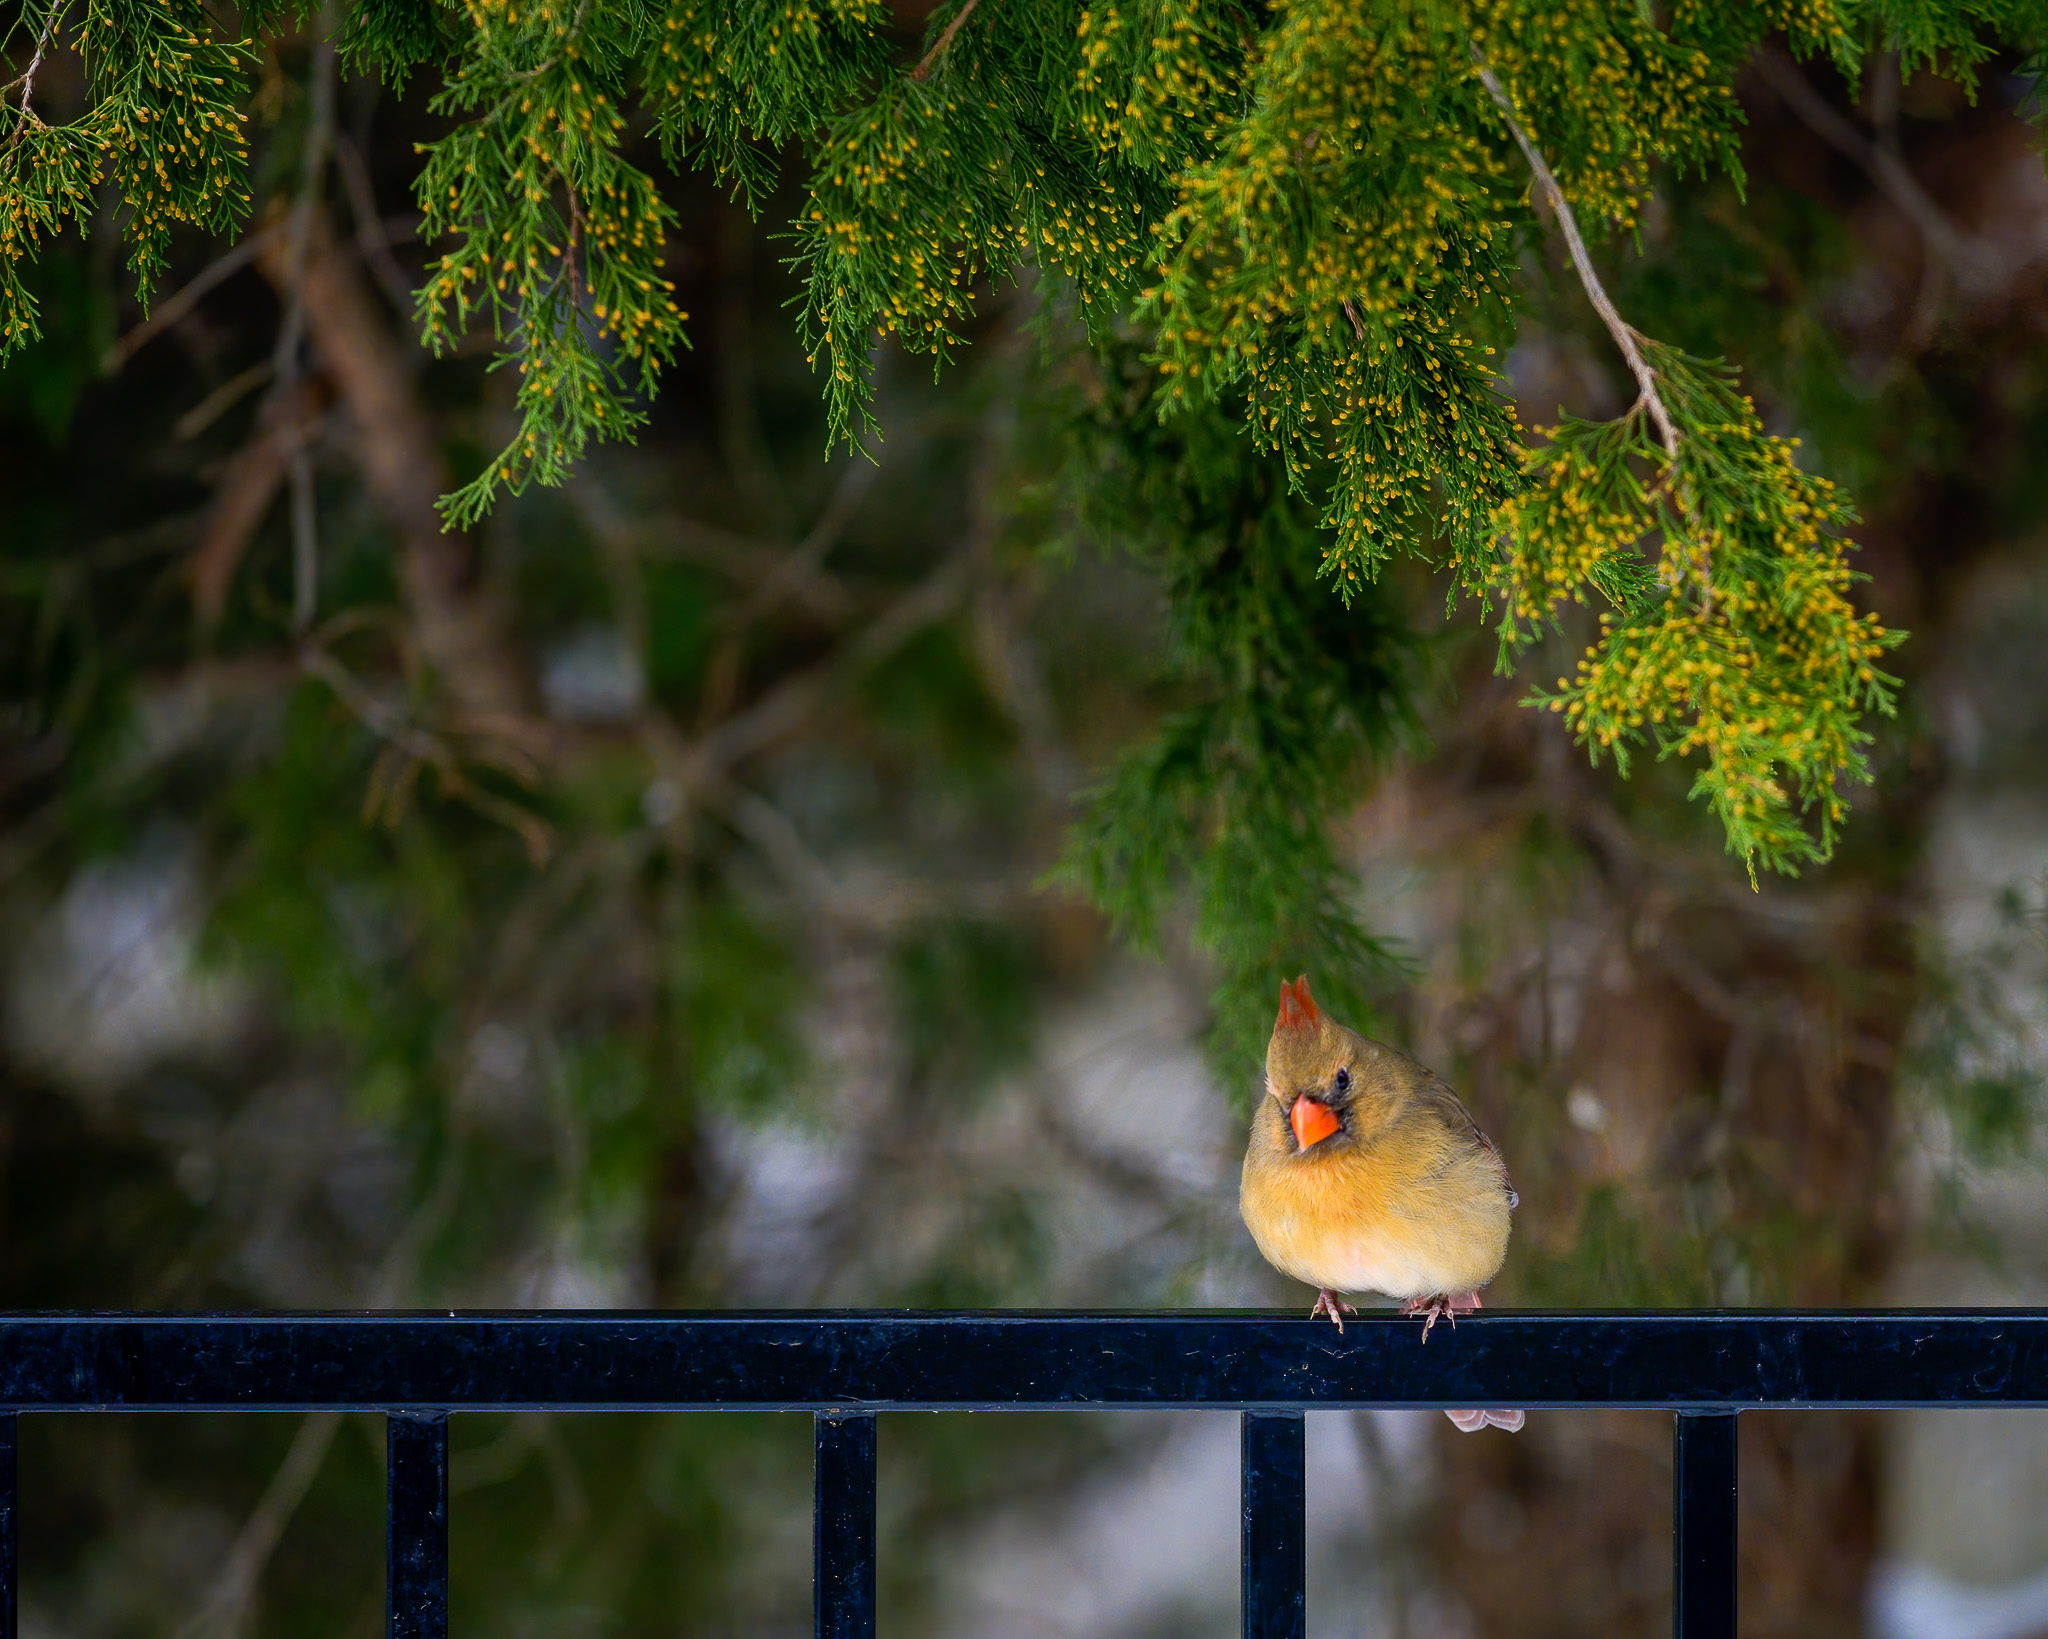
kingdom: Animalia
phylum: Chordata
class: Aves
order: Passeriformes
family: Cardinalidae
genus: Cardinalis
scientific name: Cardinalis cardinalis
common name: Northern cardinal
